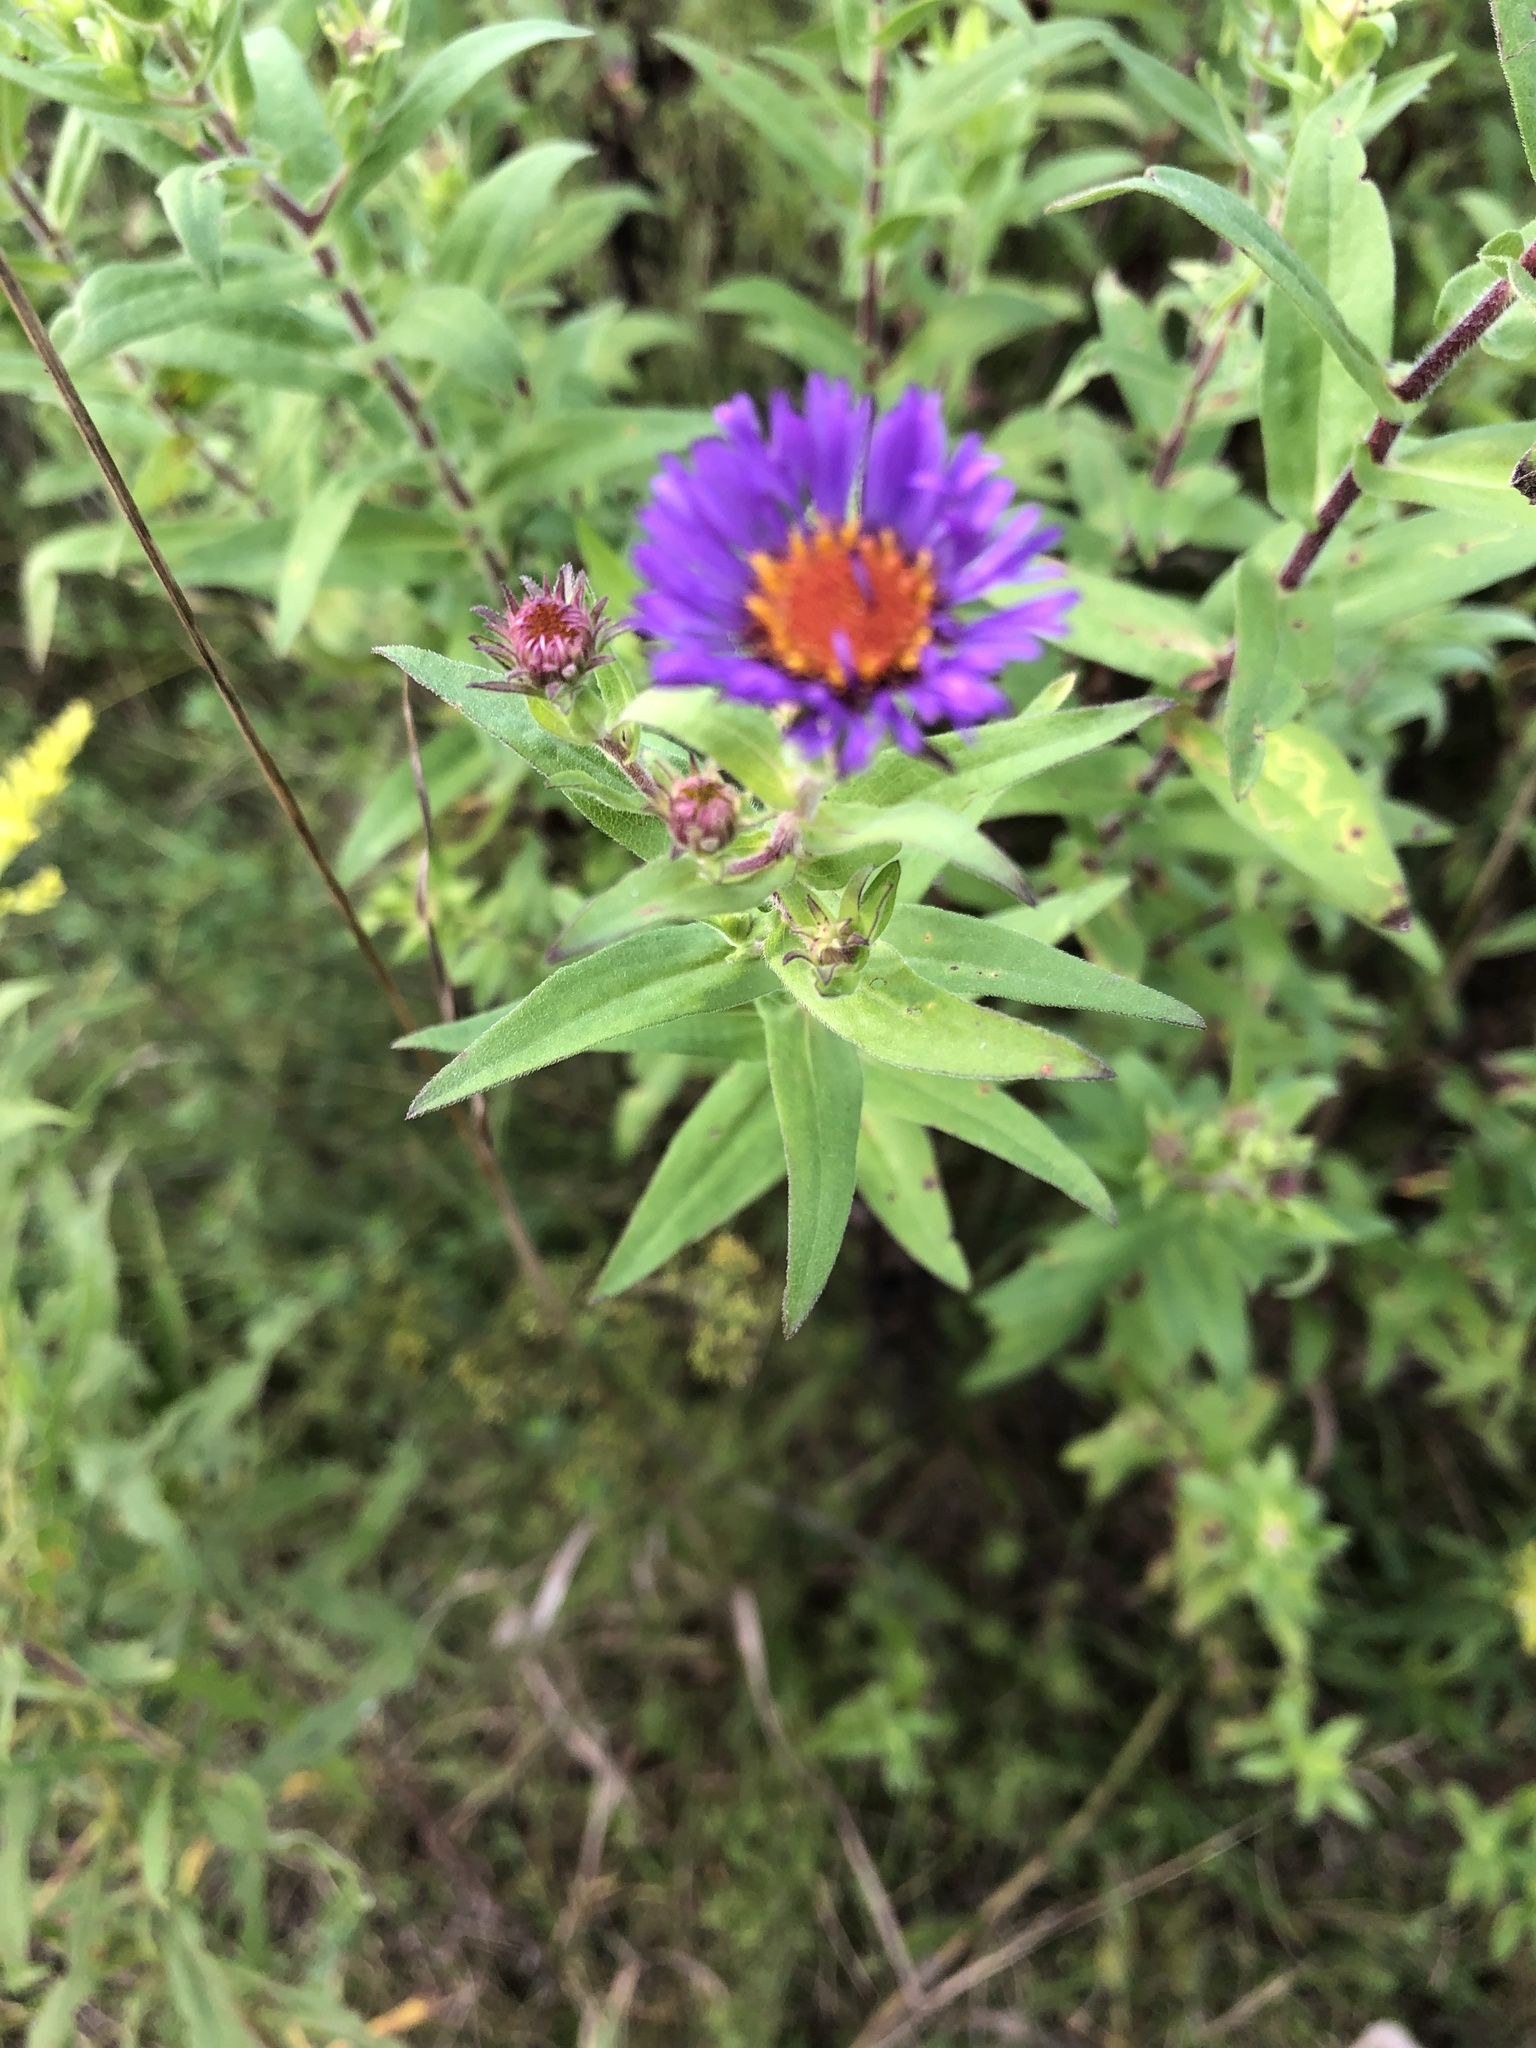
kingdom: Plantae
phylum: Tracheophyta
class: Magnoliopsida
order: Asterales
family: Asteraceae
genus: Symphyotrichum
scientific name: Symphyotrichum novae-angliae
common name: Michaelmas daisy
